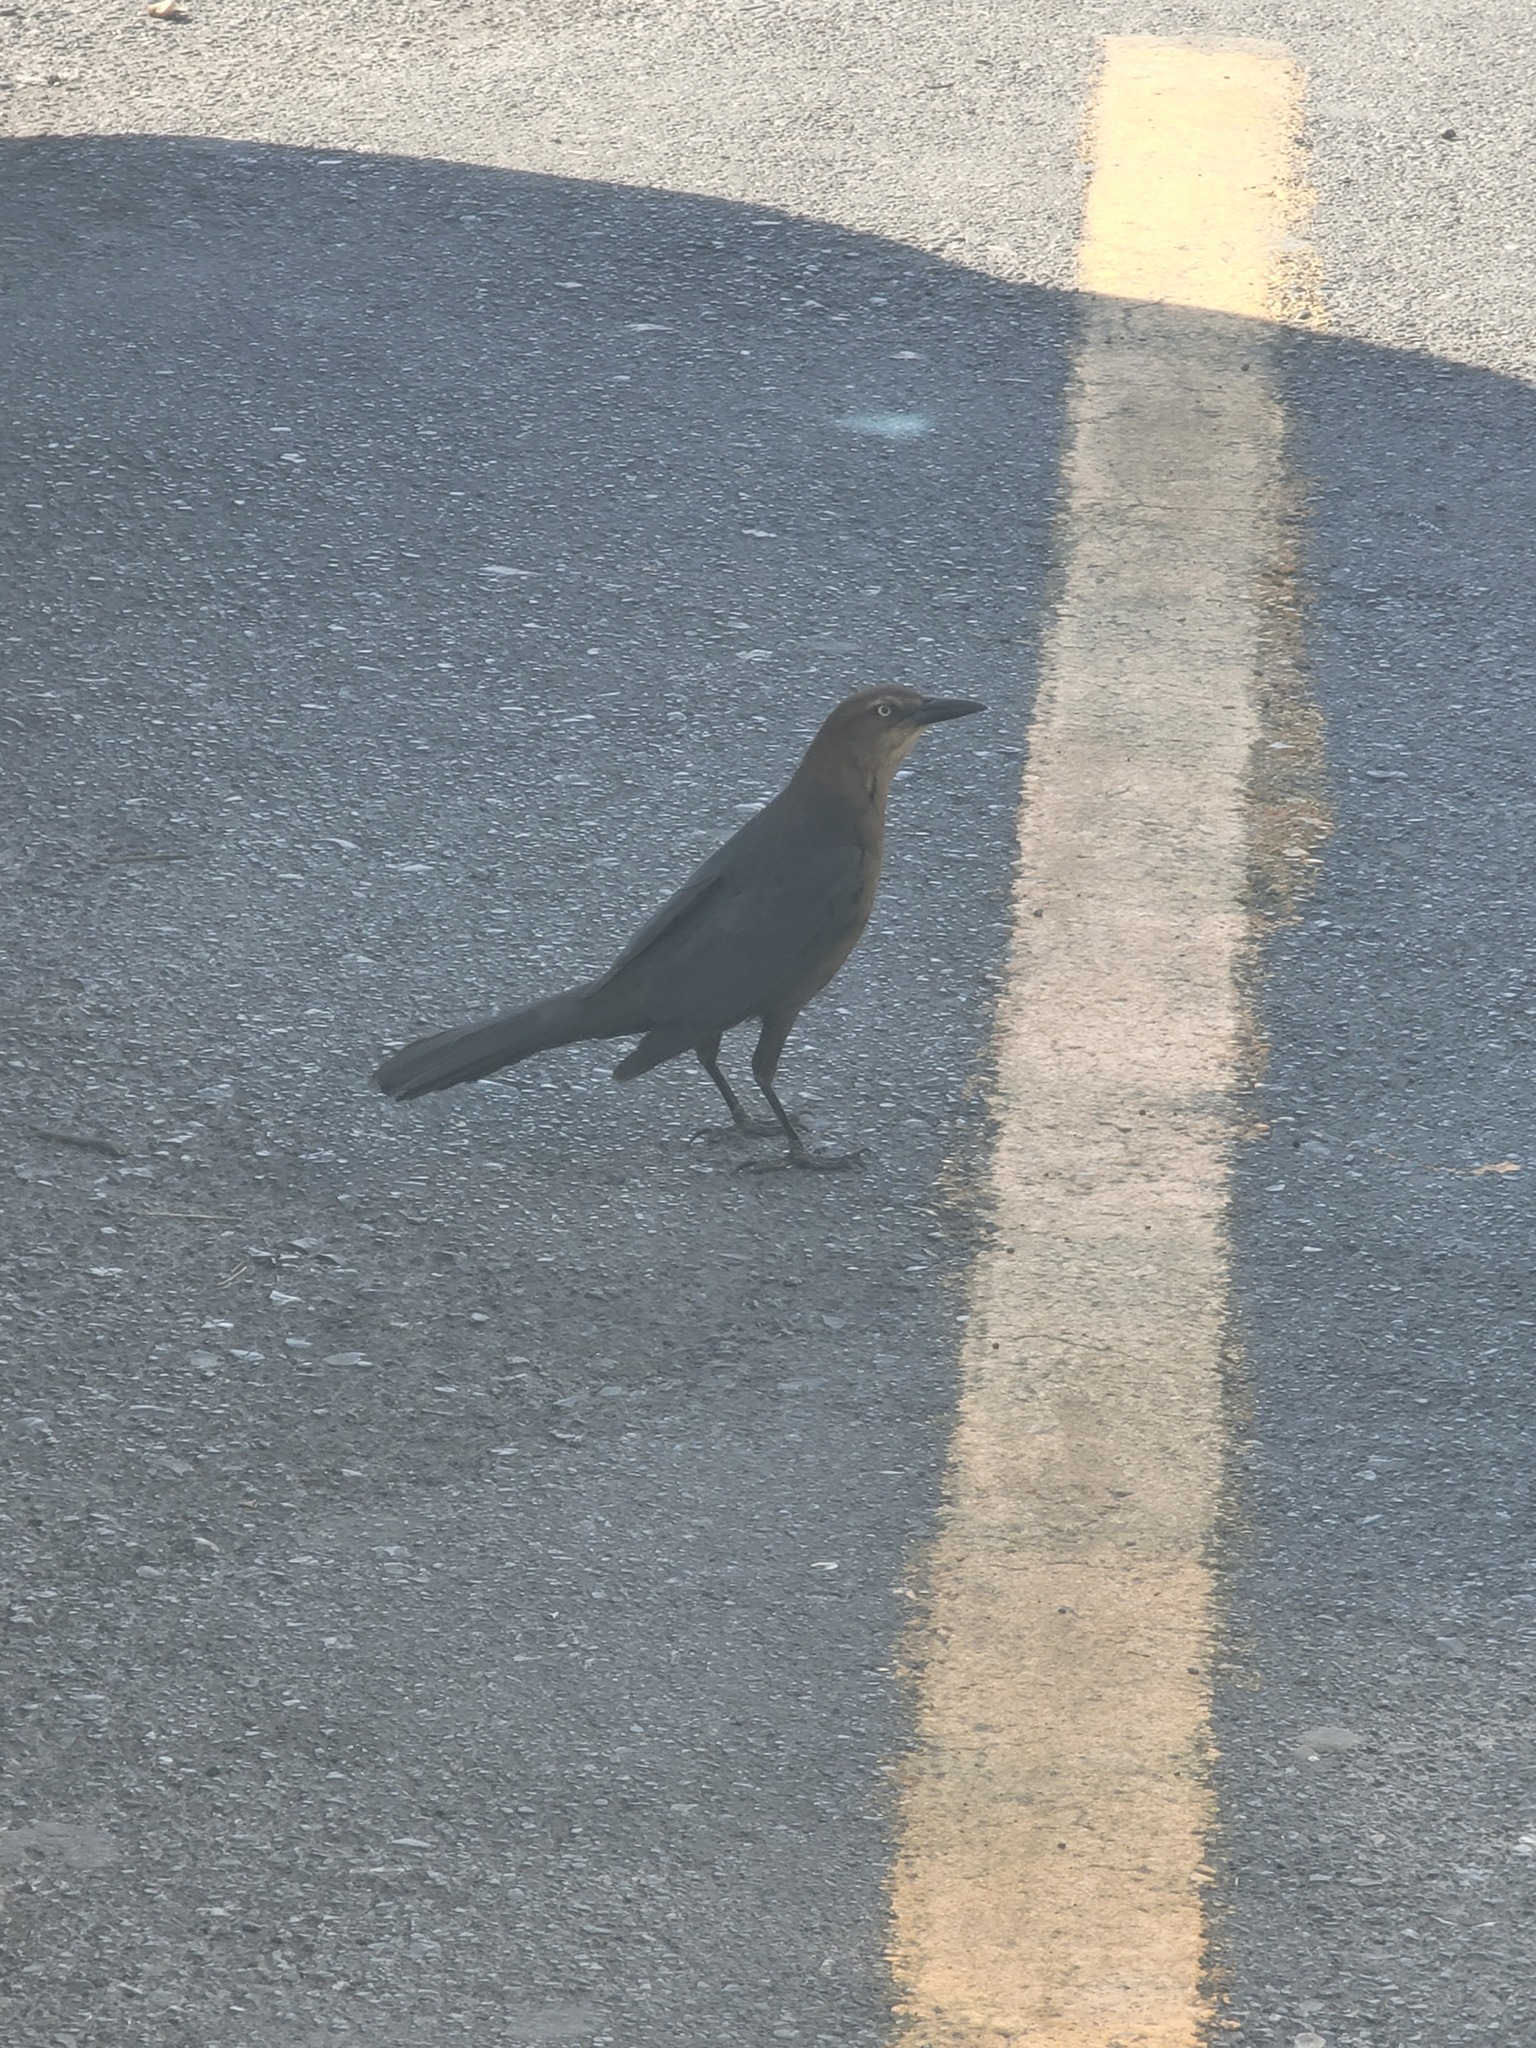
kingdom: Animalia
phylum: Chordata
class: Aves
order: Passeriformes
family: Icteridae
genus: Quiscalus
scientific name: Quiscalus mexicanus
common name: Great-tailed grackle
